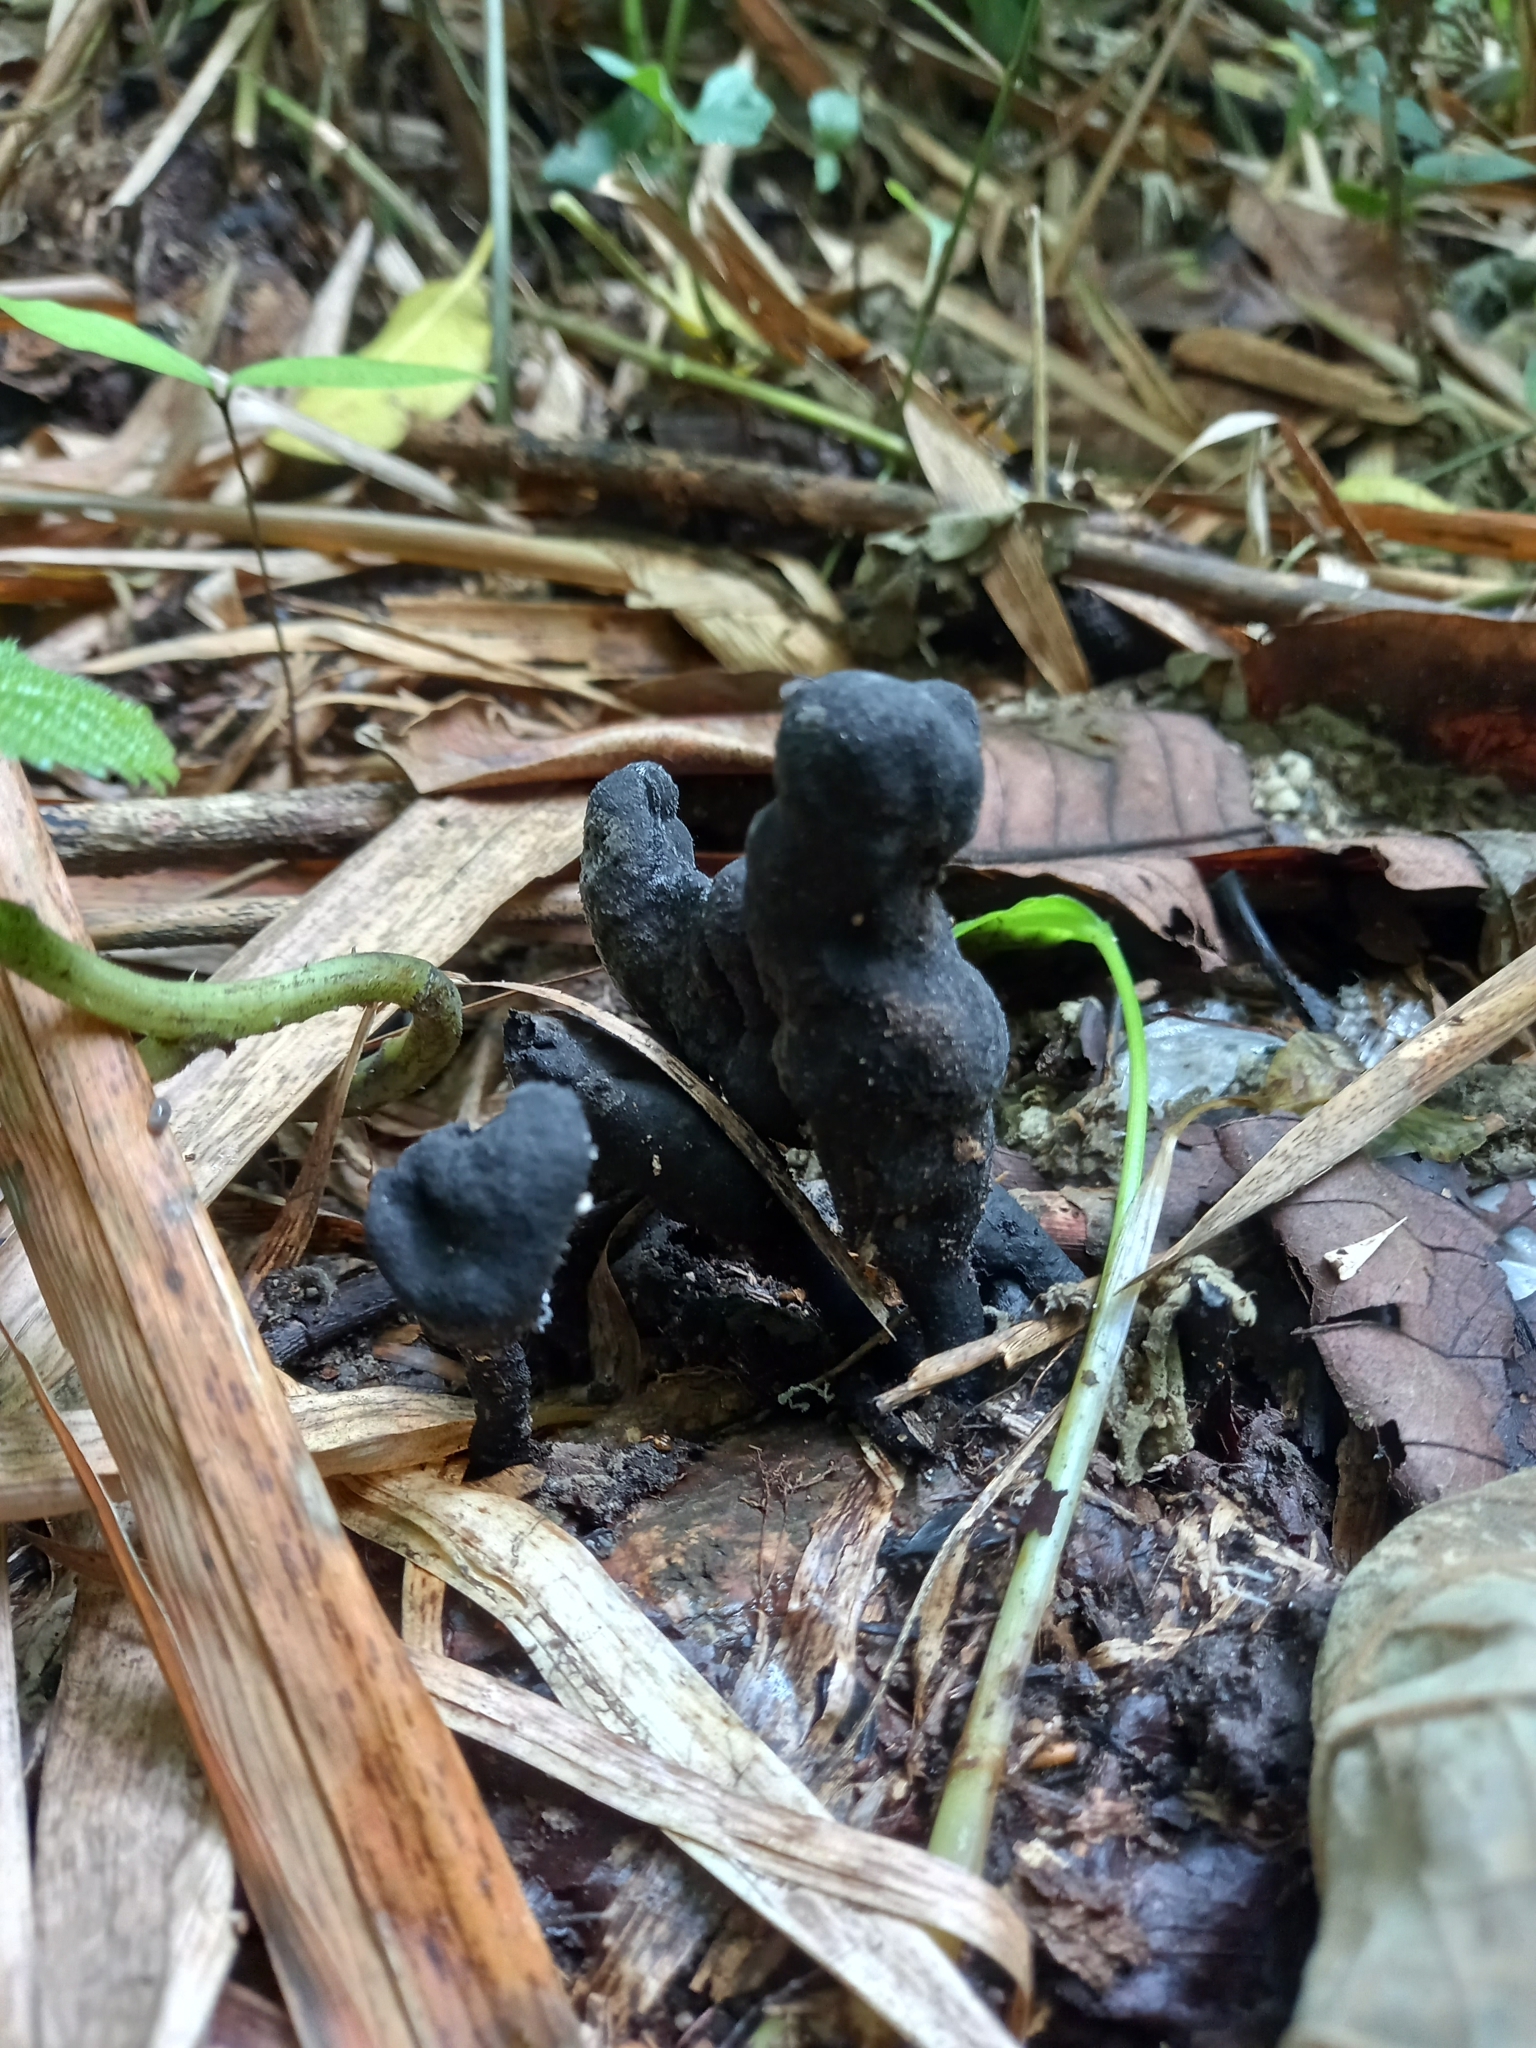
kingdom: Fungi
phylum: Ascomycota
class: Sordariomycetes
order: Xylariales
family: Xylariaceae
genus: Xylaria
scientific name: Xylaria polymorpha
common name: Dead man's fingers
